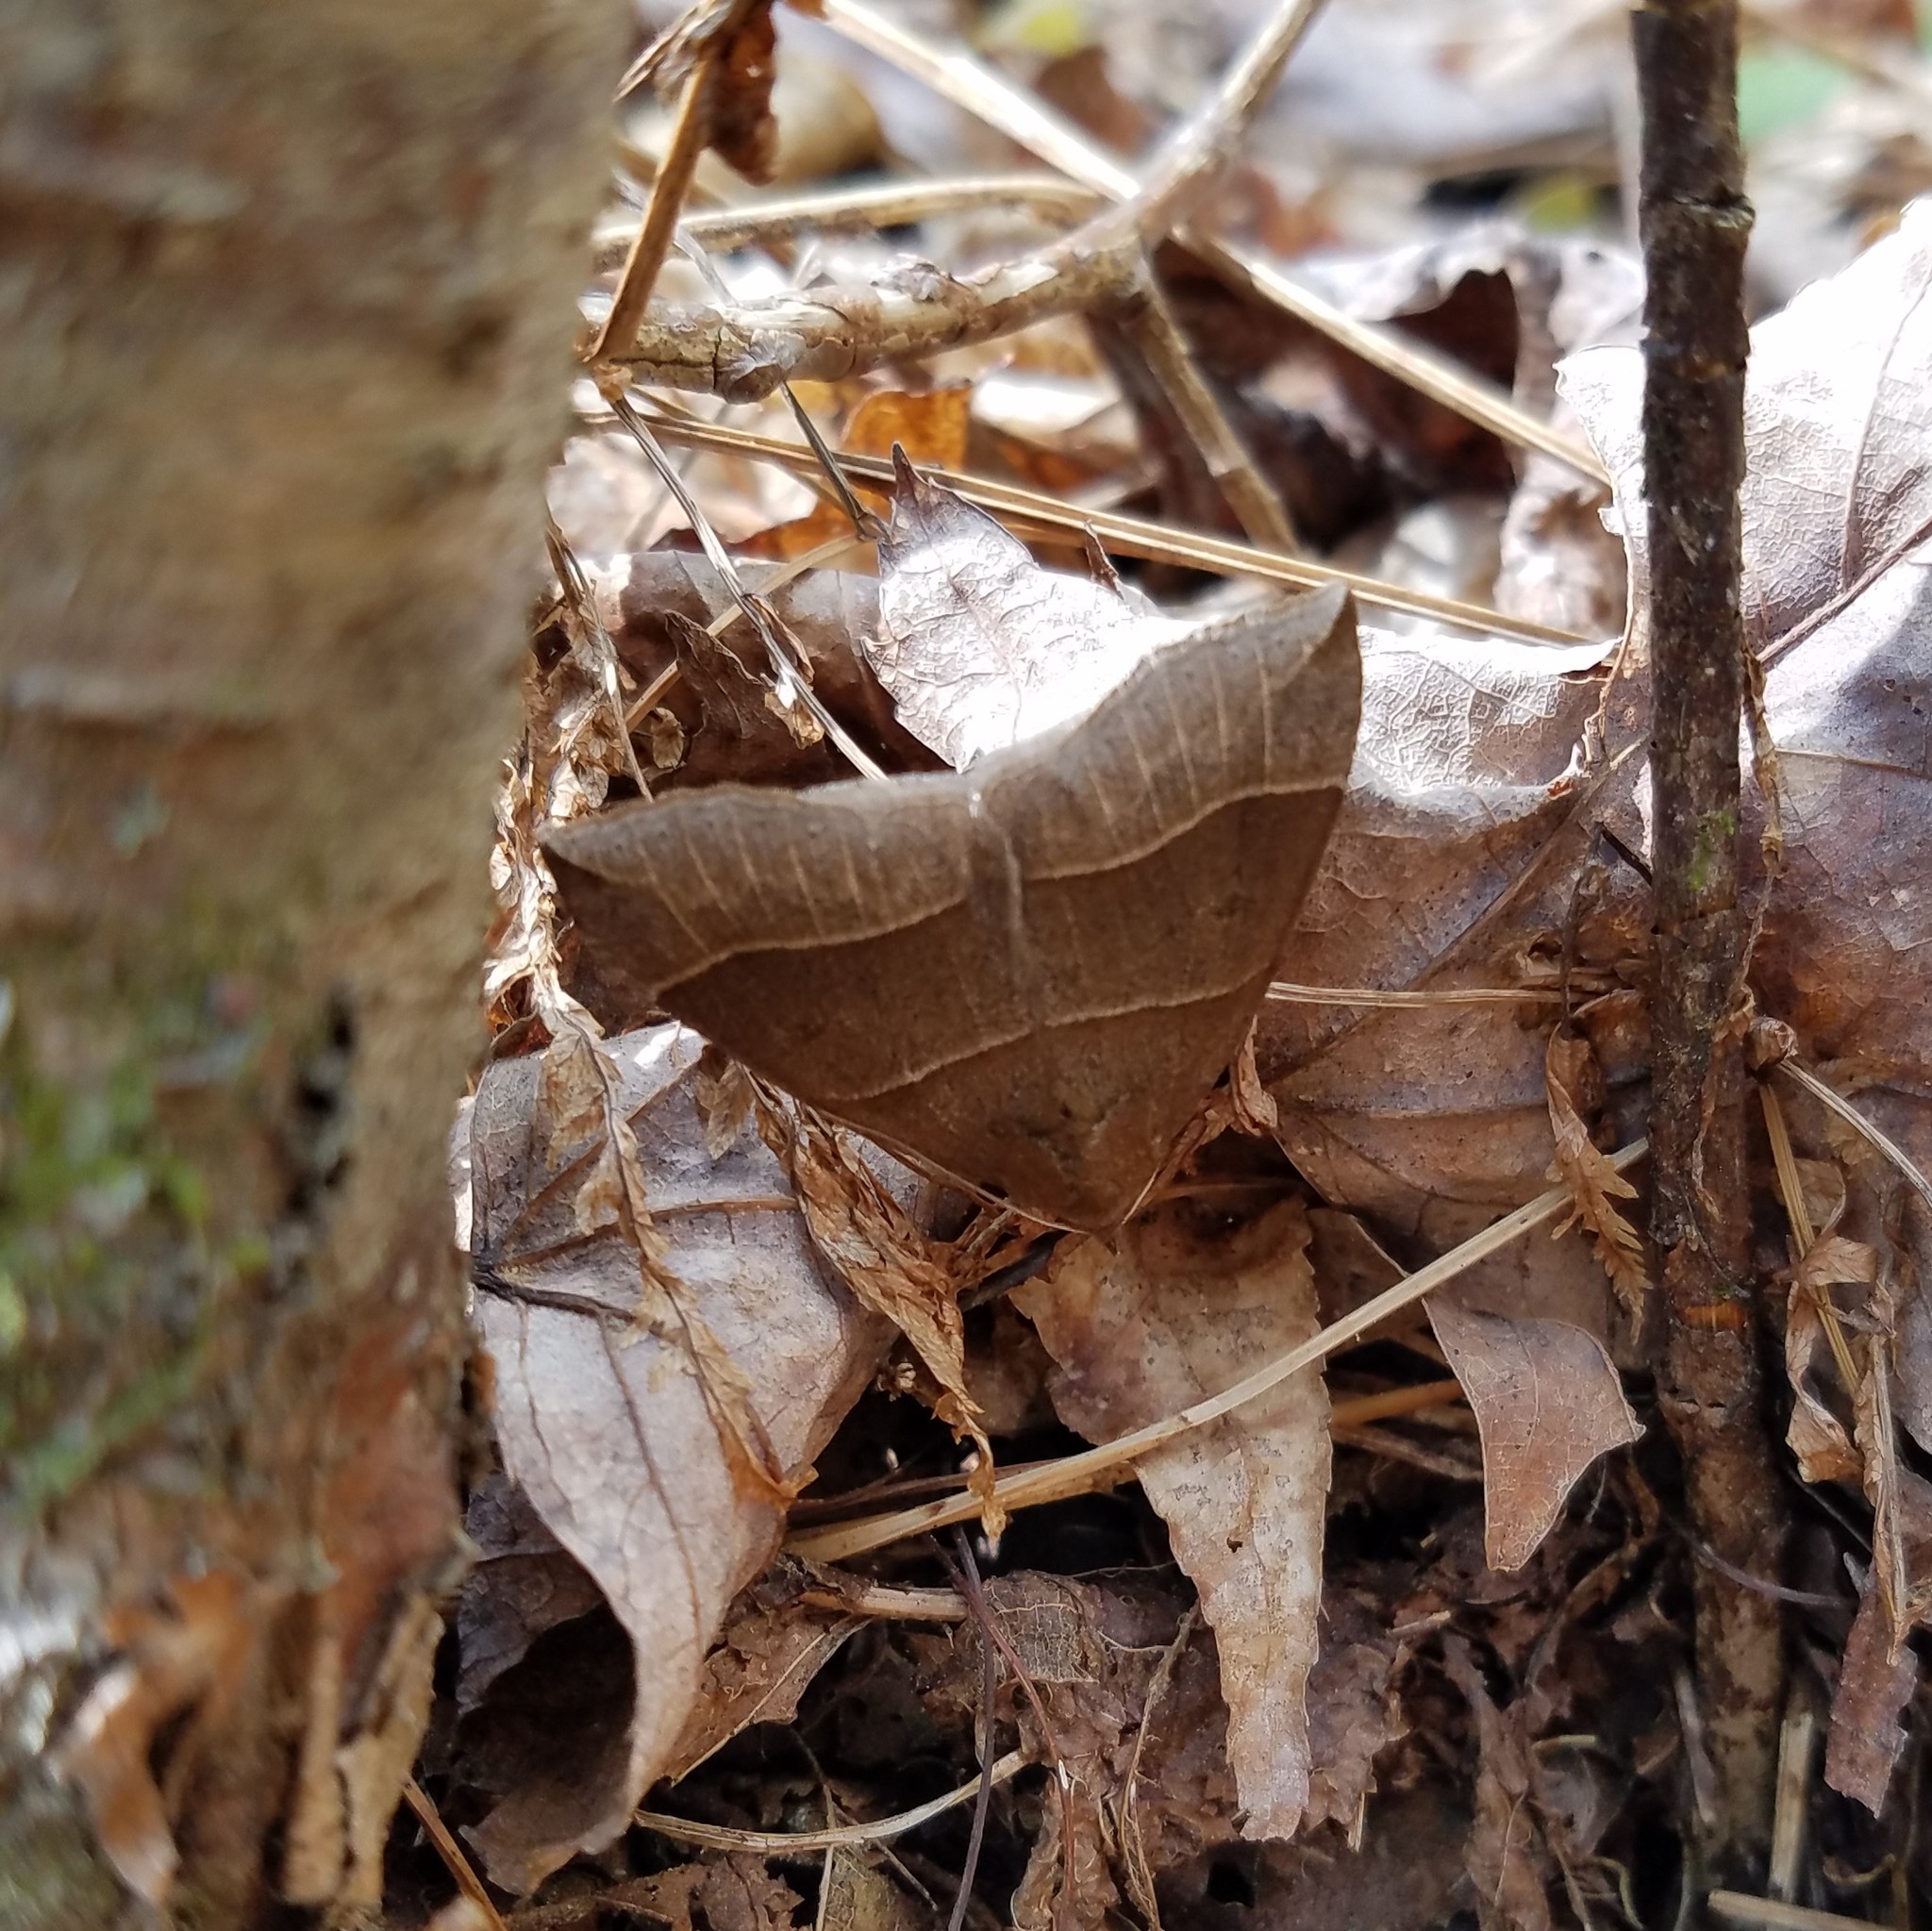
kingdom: Animalia
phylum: Arthropoda
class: Insecta
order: Lepidoptera
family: Erebidae
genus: Parallelia
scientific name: Parallelia bistriaris
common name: Maple looper moth
